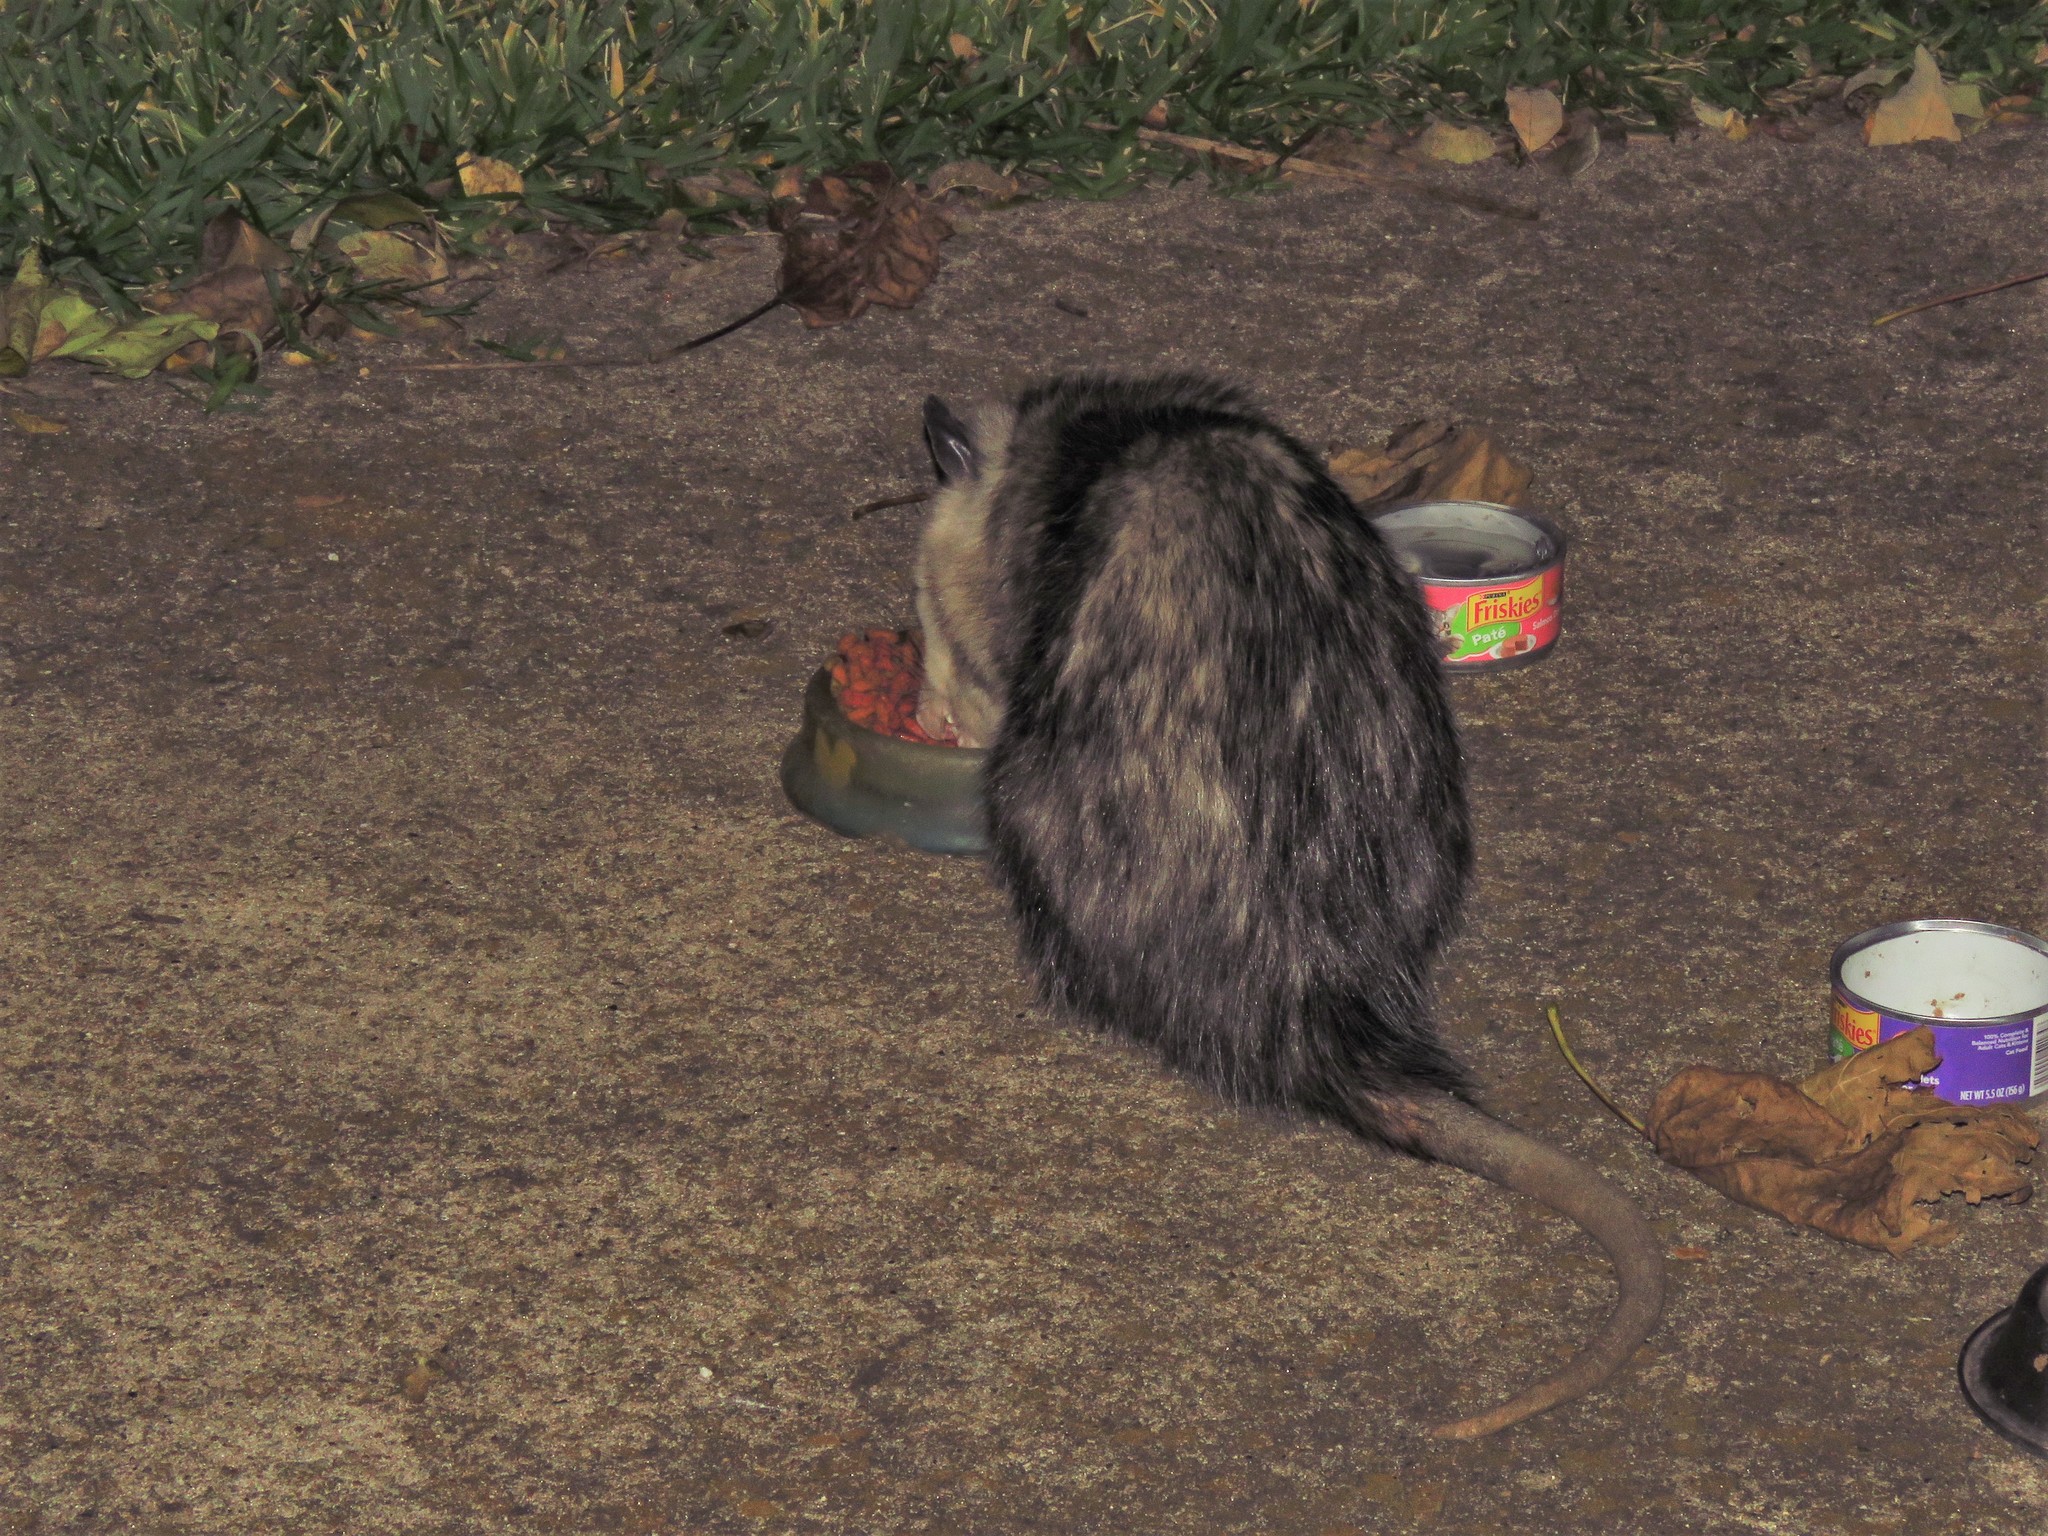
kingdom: Animalia
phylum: Chordata
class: Mammalia
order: Didelphimorphia
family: Didelphidae
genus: Didelphis
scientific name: Didelphis virginiana
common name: Virginia opossum
